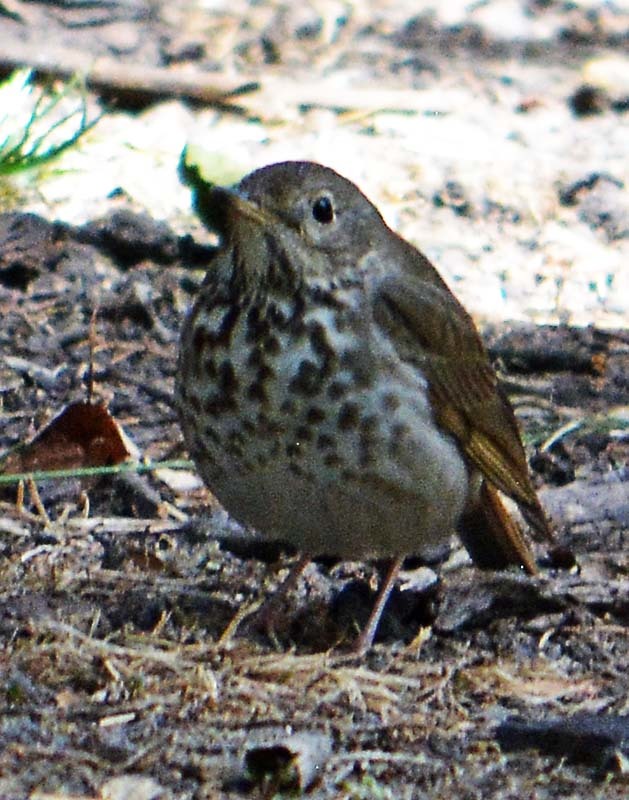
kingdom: Animalia
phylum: Chordata
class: Aves
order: Passeriformes
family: Turdidae
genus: Catharus
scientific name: Catharus guttatus
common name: Hermit thrush
